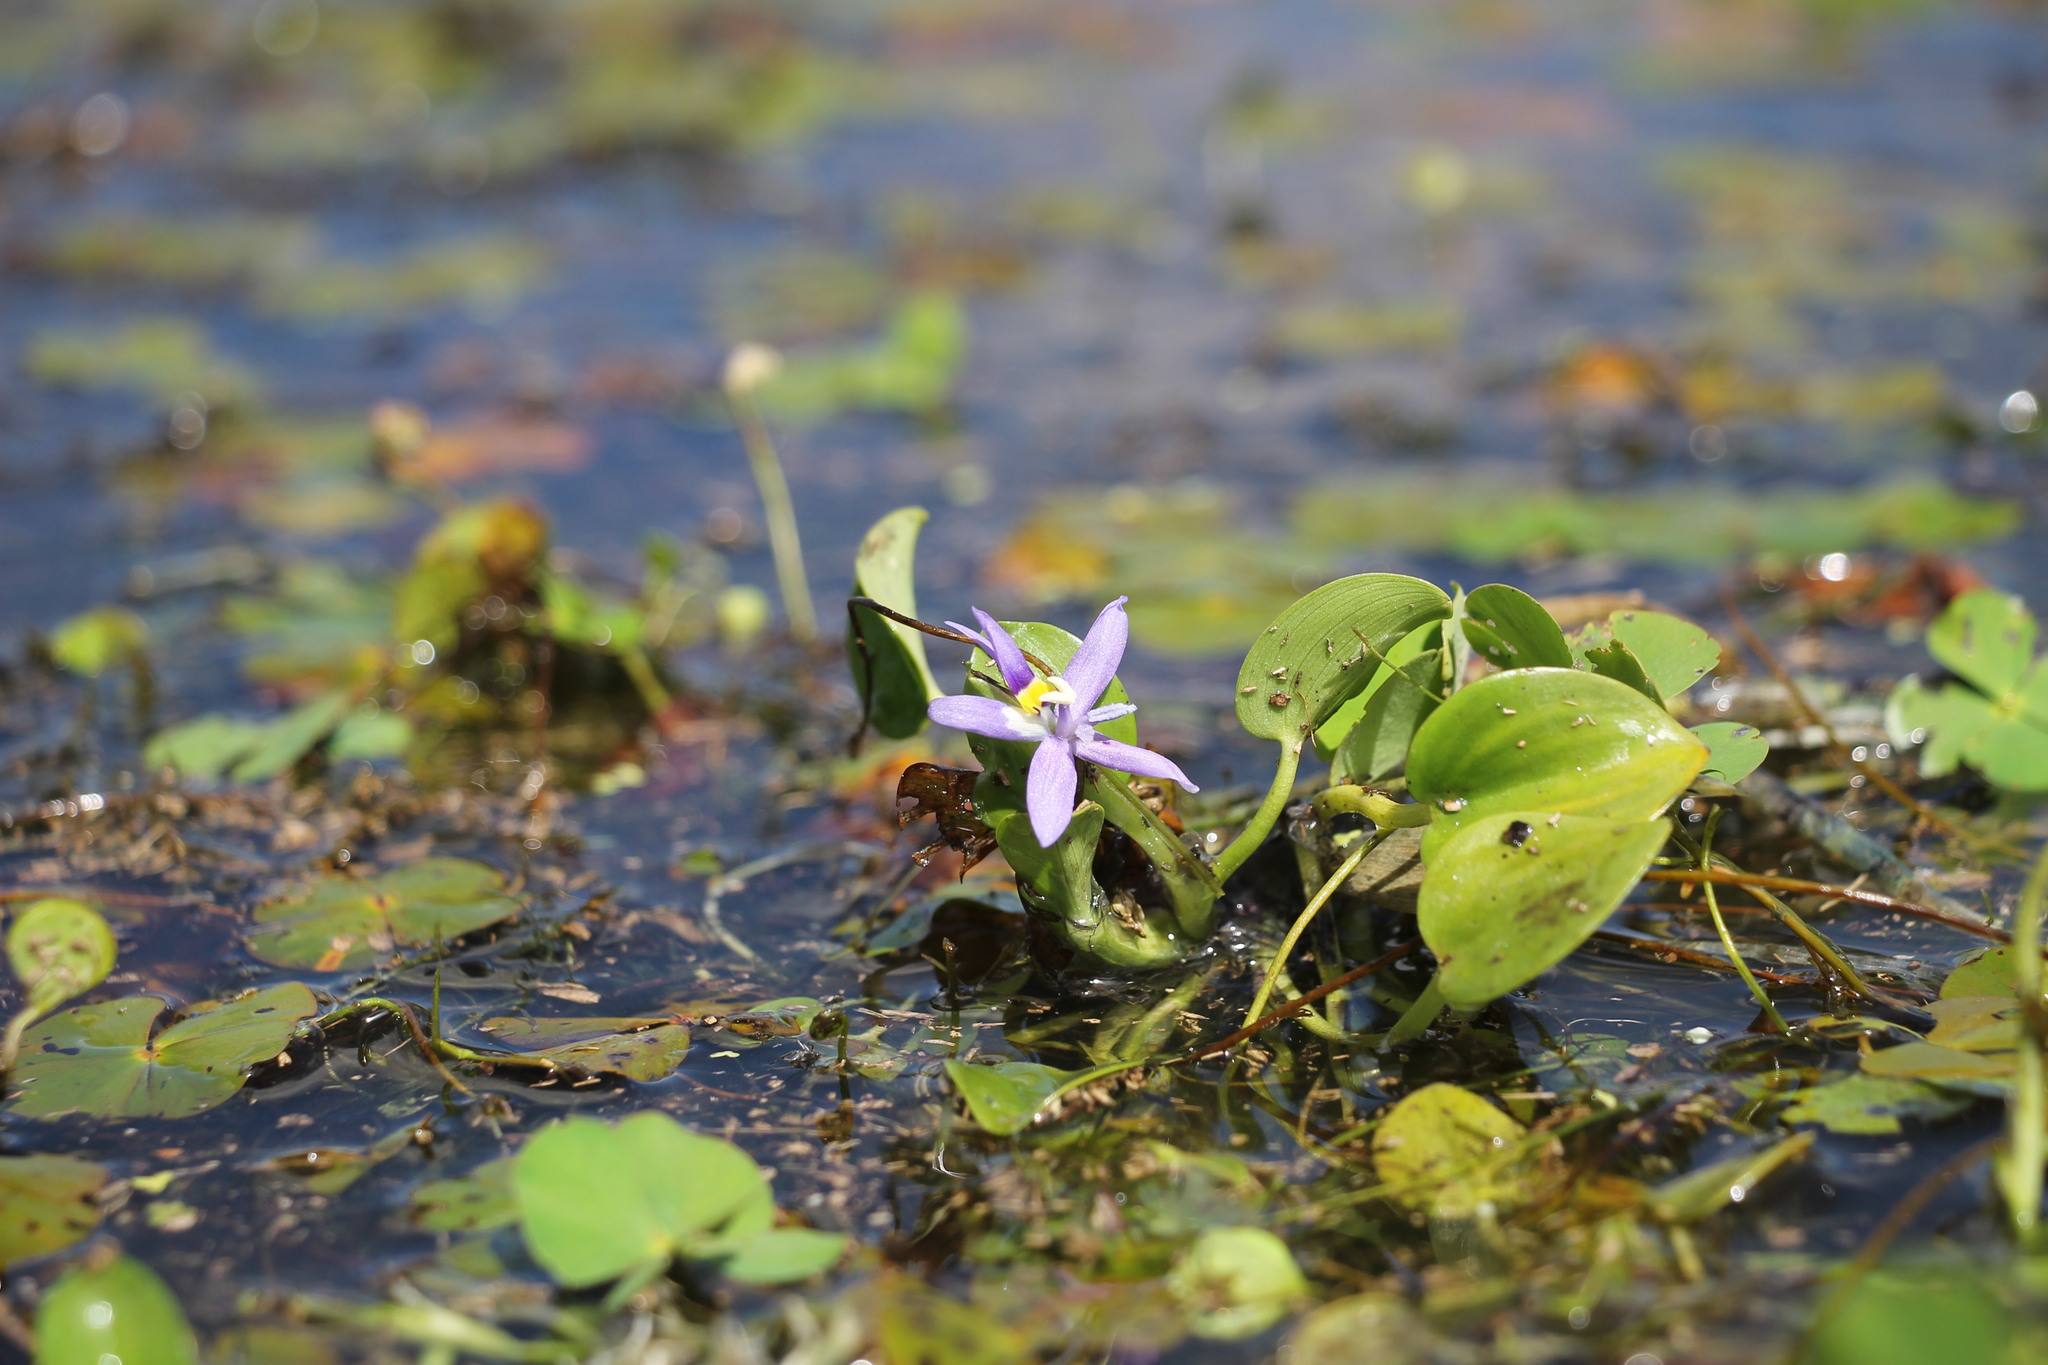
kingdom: Plantae
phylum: Tracheophyta
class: Liliopsida
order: Commelinales
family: Pontederiaceae
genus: Heteranthera
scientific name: Heteranthera rotundifolia
